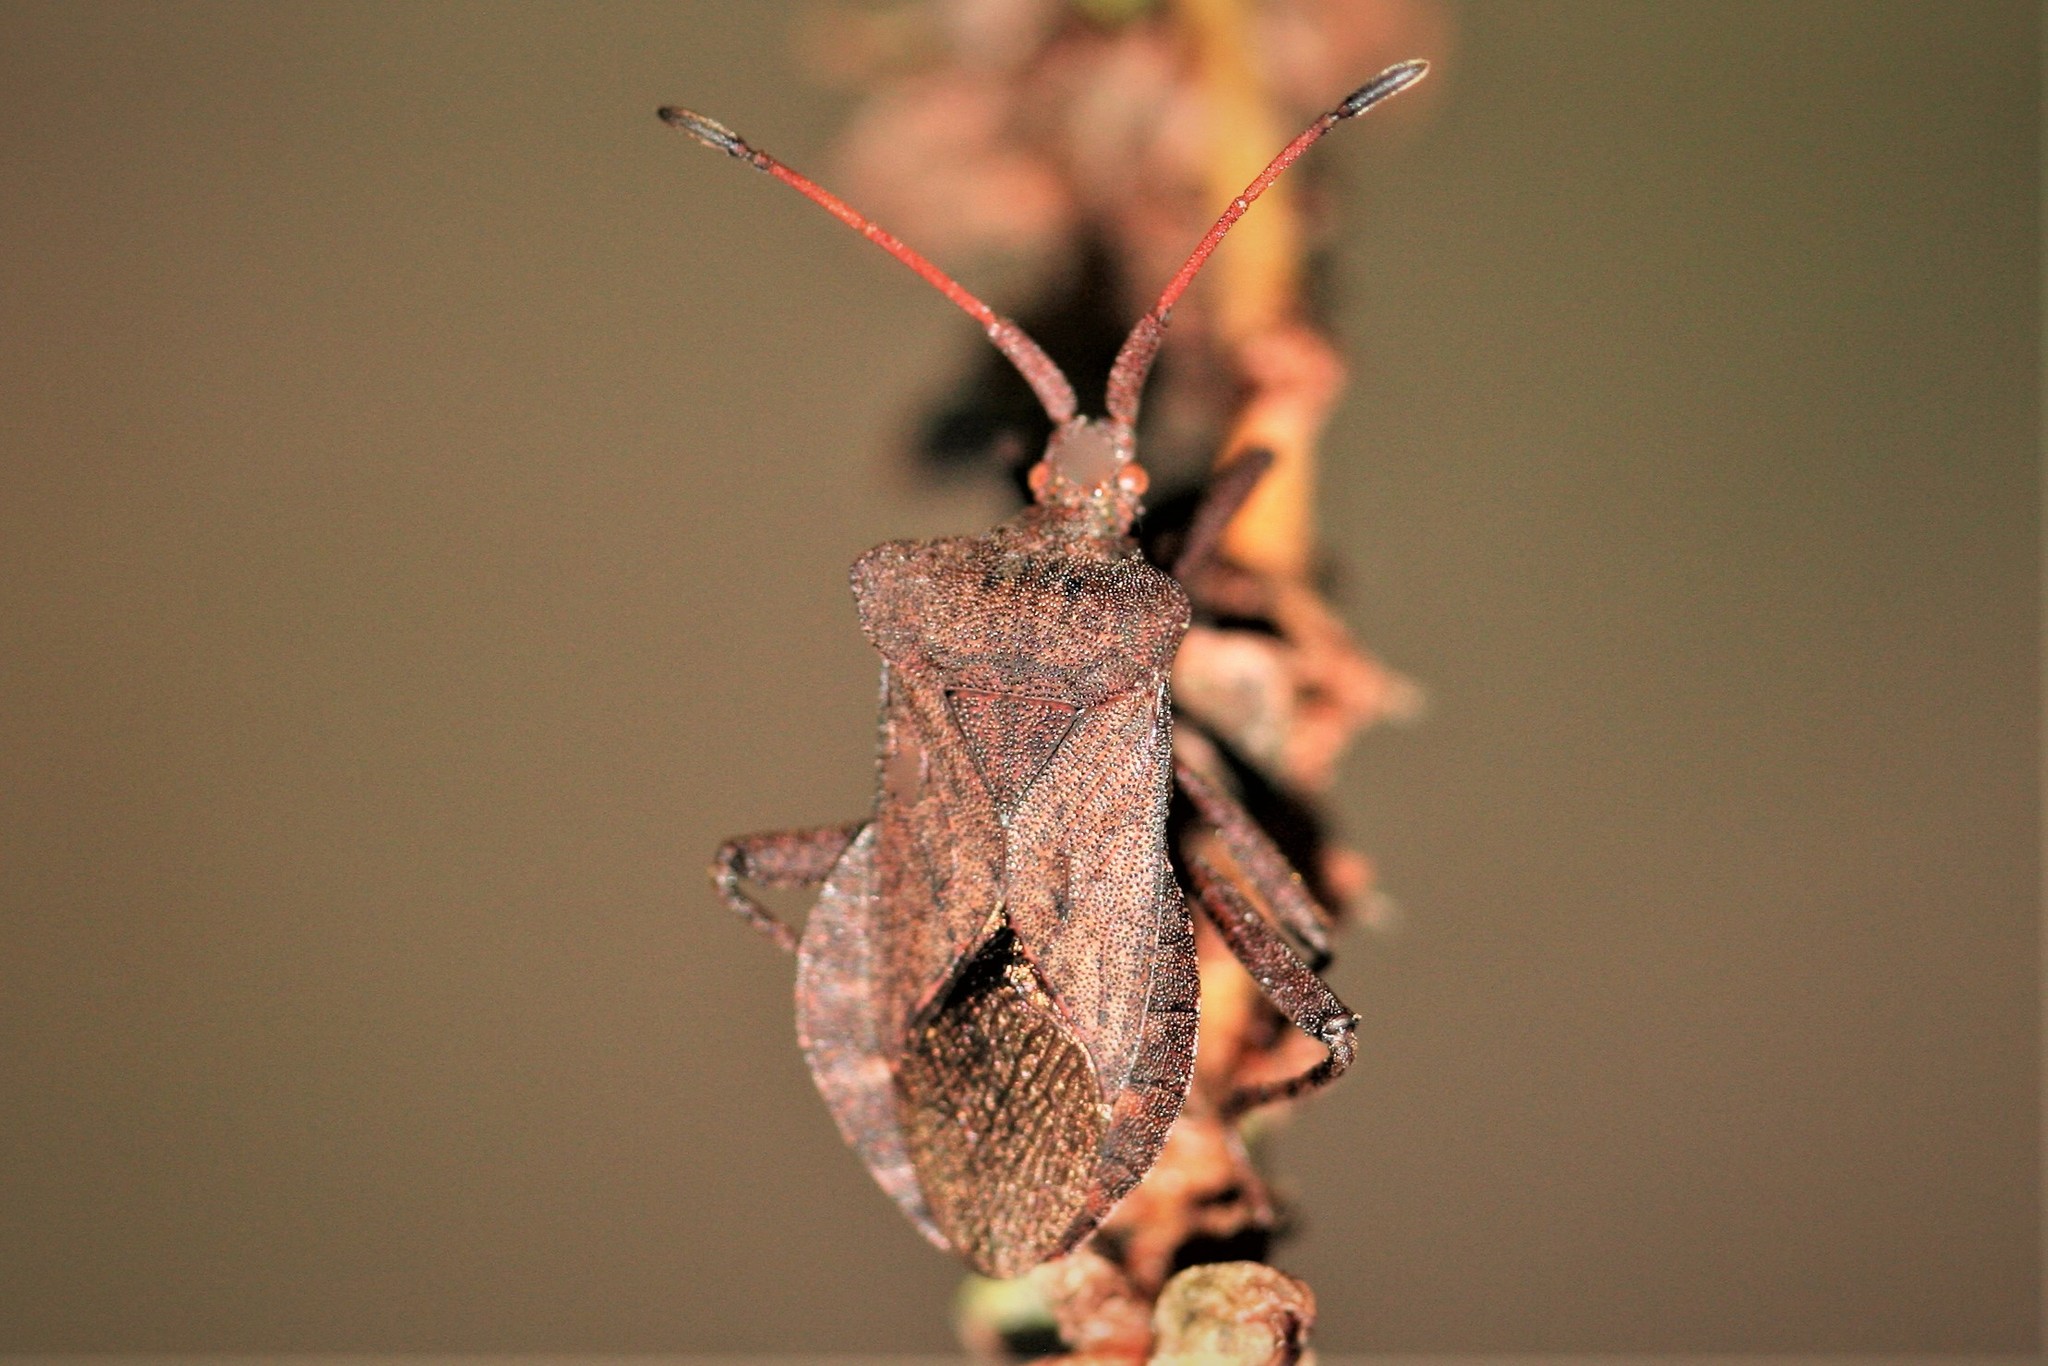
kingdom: Animalia
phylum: Arthropoda
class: Insecta
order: Hemiptera
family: Coreidae
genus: Coreus
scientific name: Coreus marginatus
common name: Dock bug
